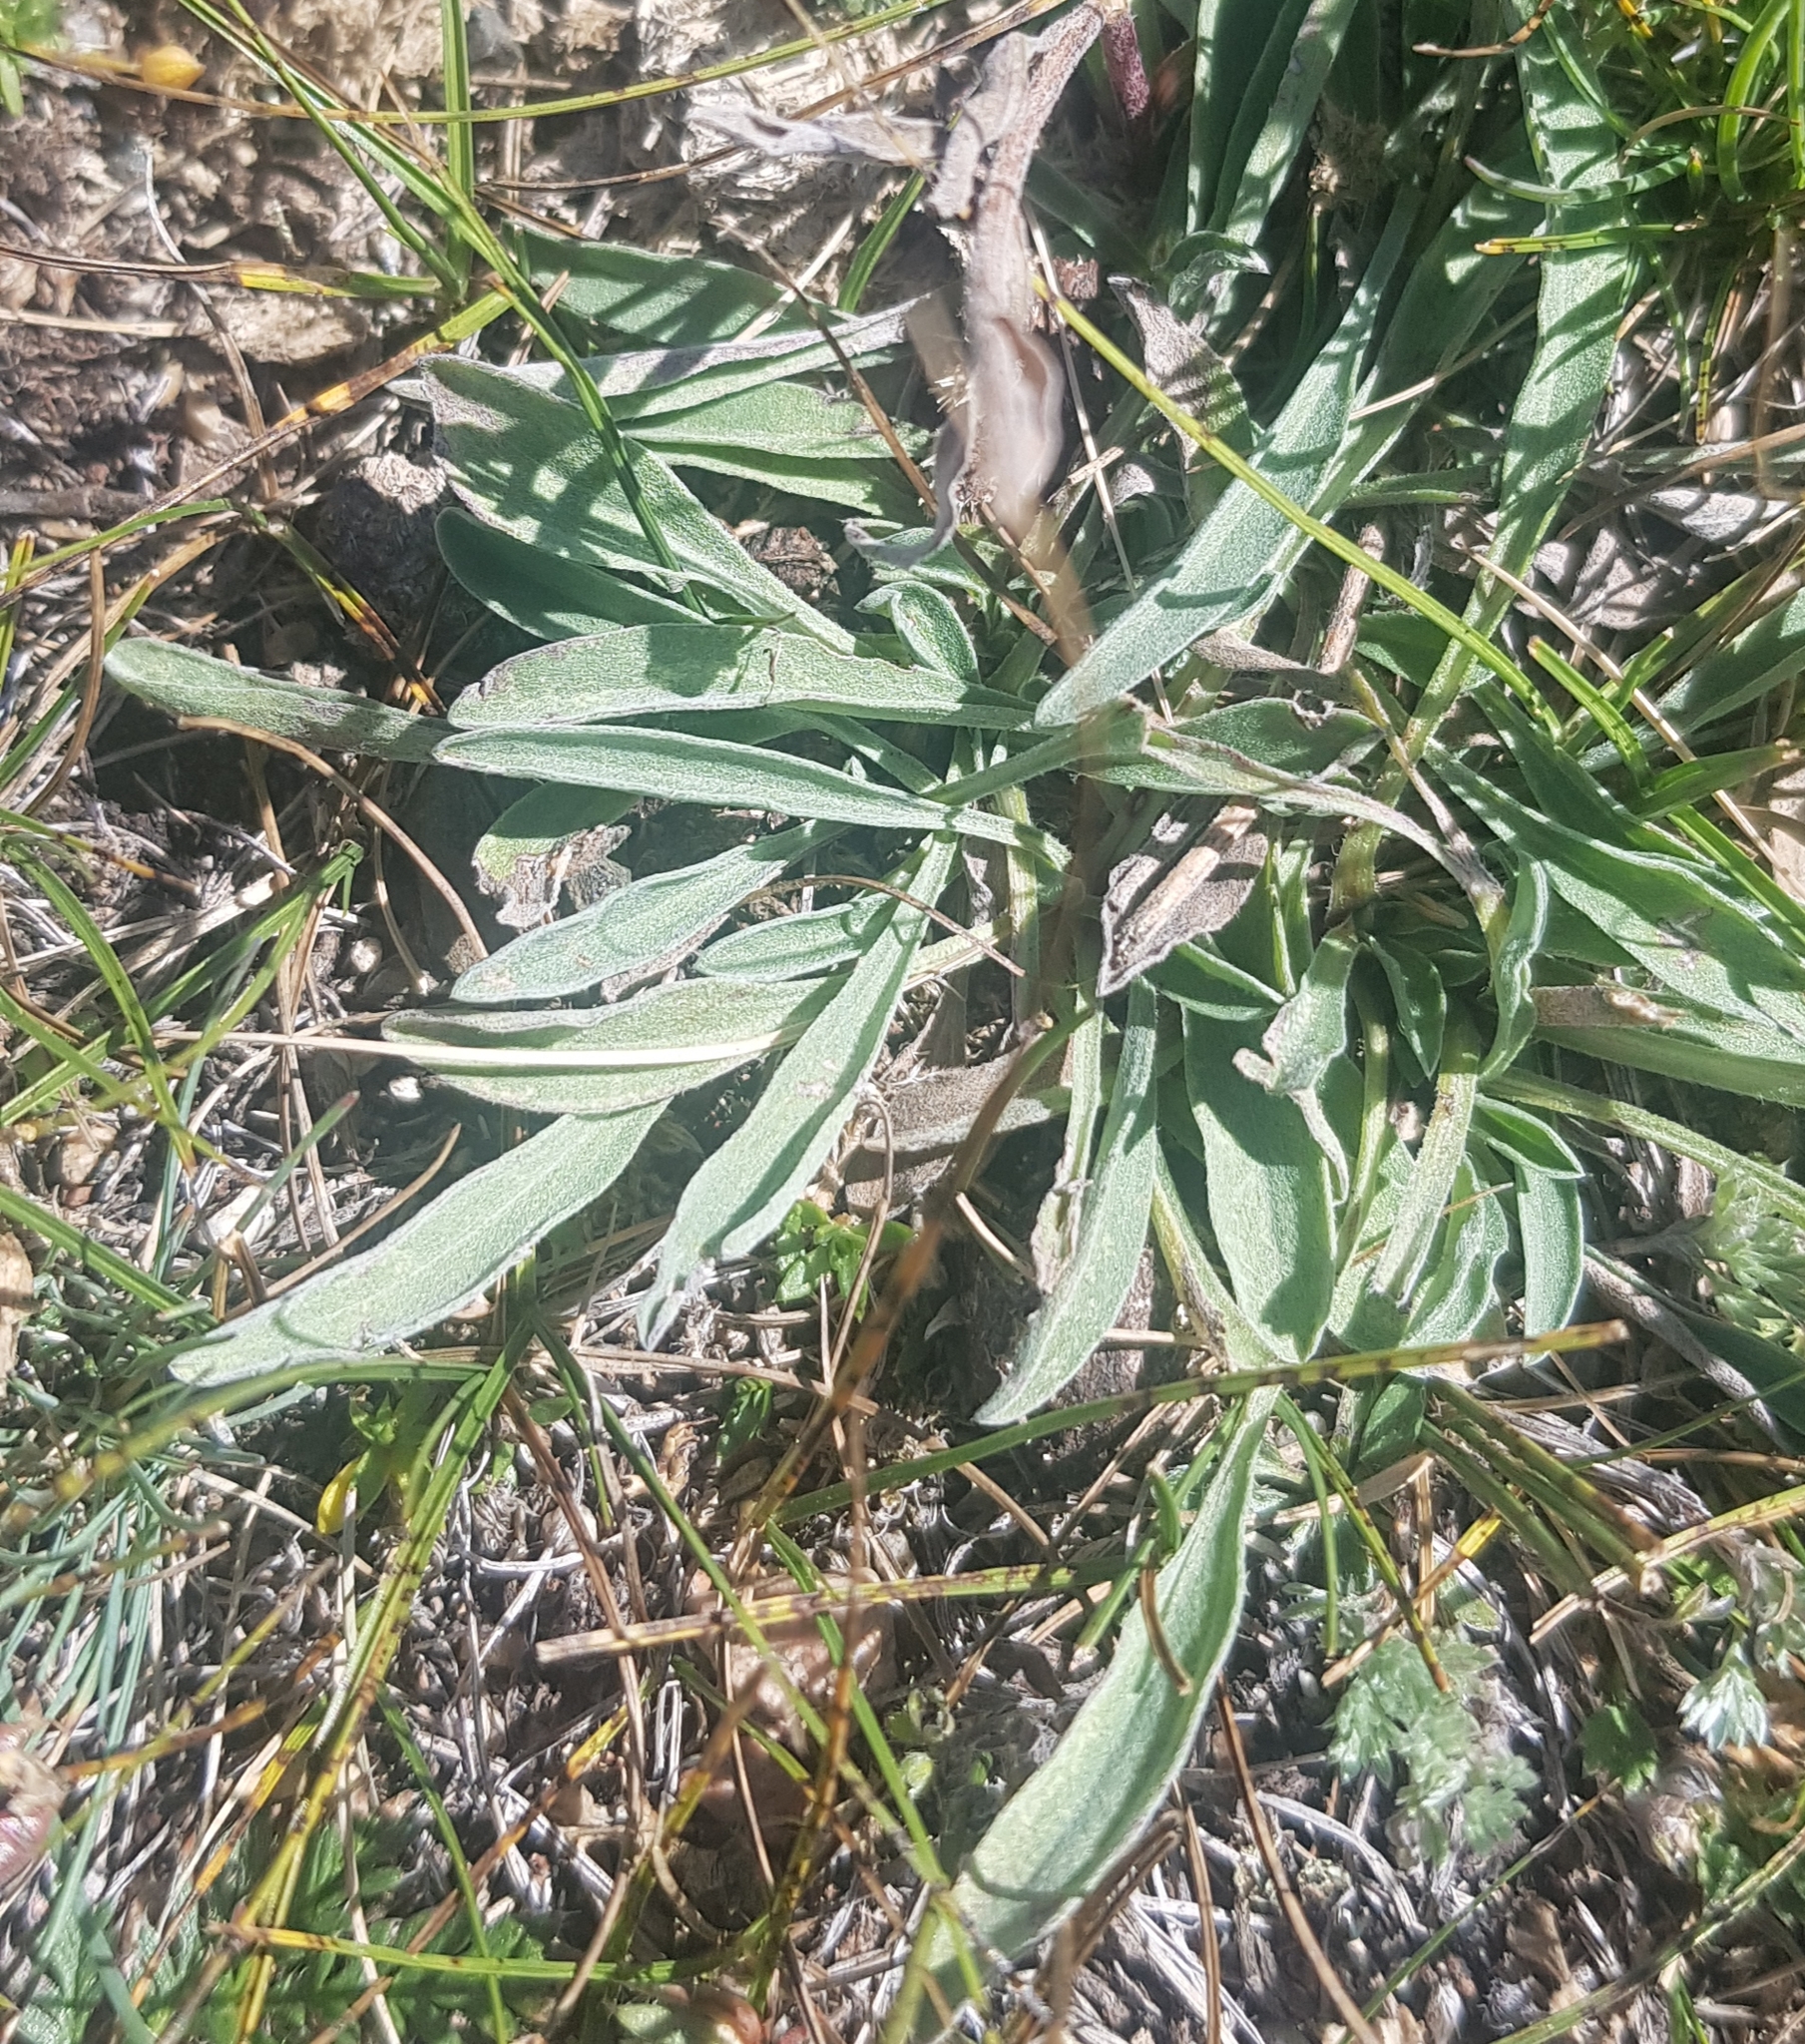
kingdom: Plantae
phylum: Tracheophyta
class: Magnoliopsida
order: Dipsacales
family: Caprifoliaceae
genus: Scabiosa
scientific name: Scabiosa comosa
